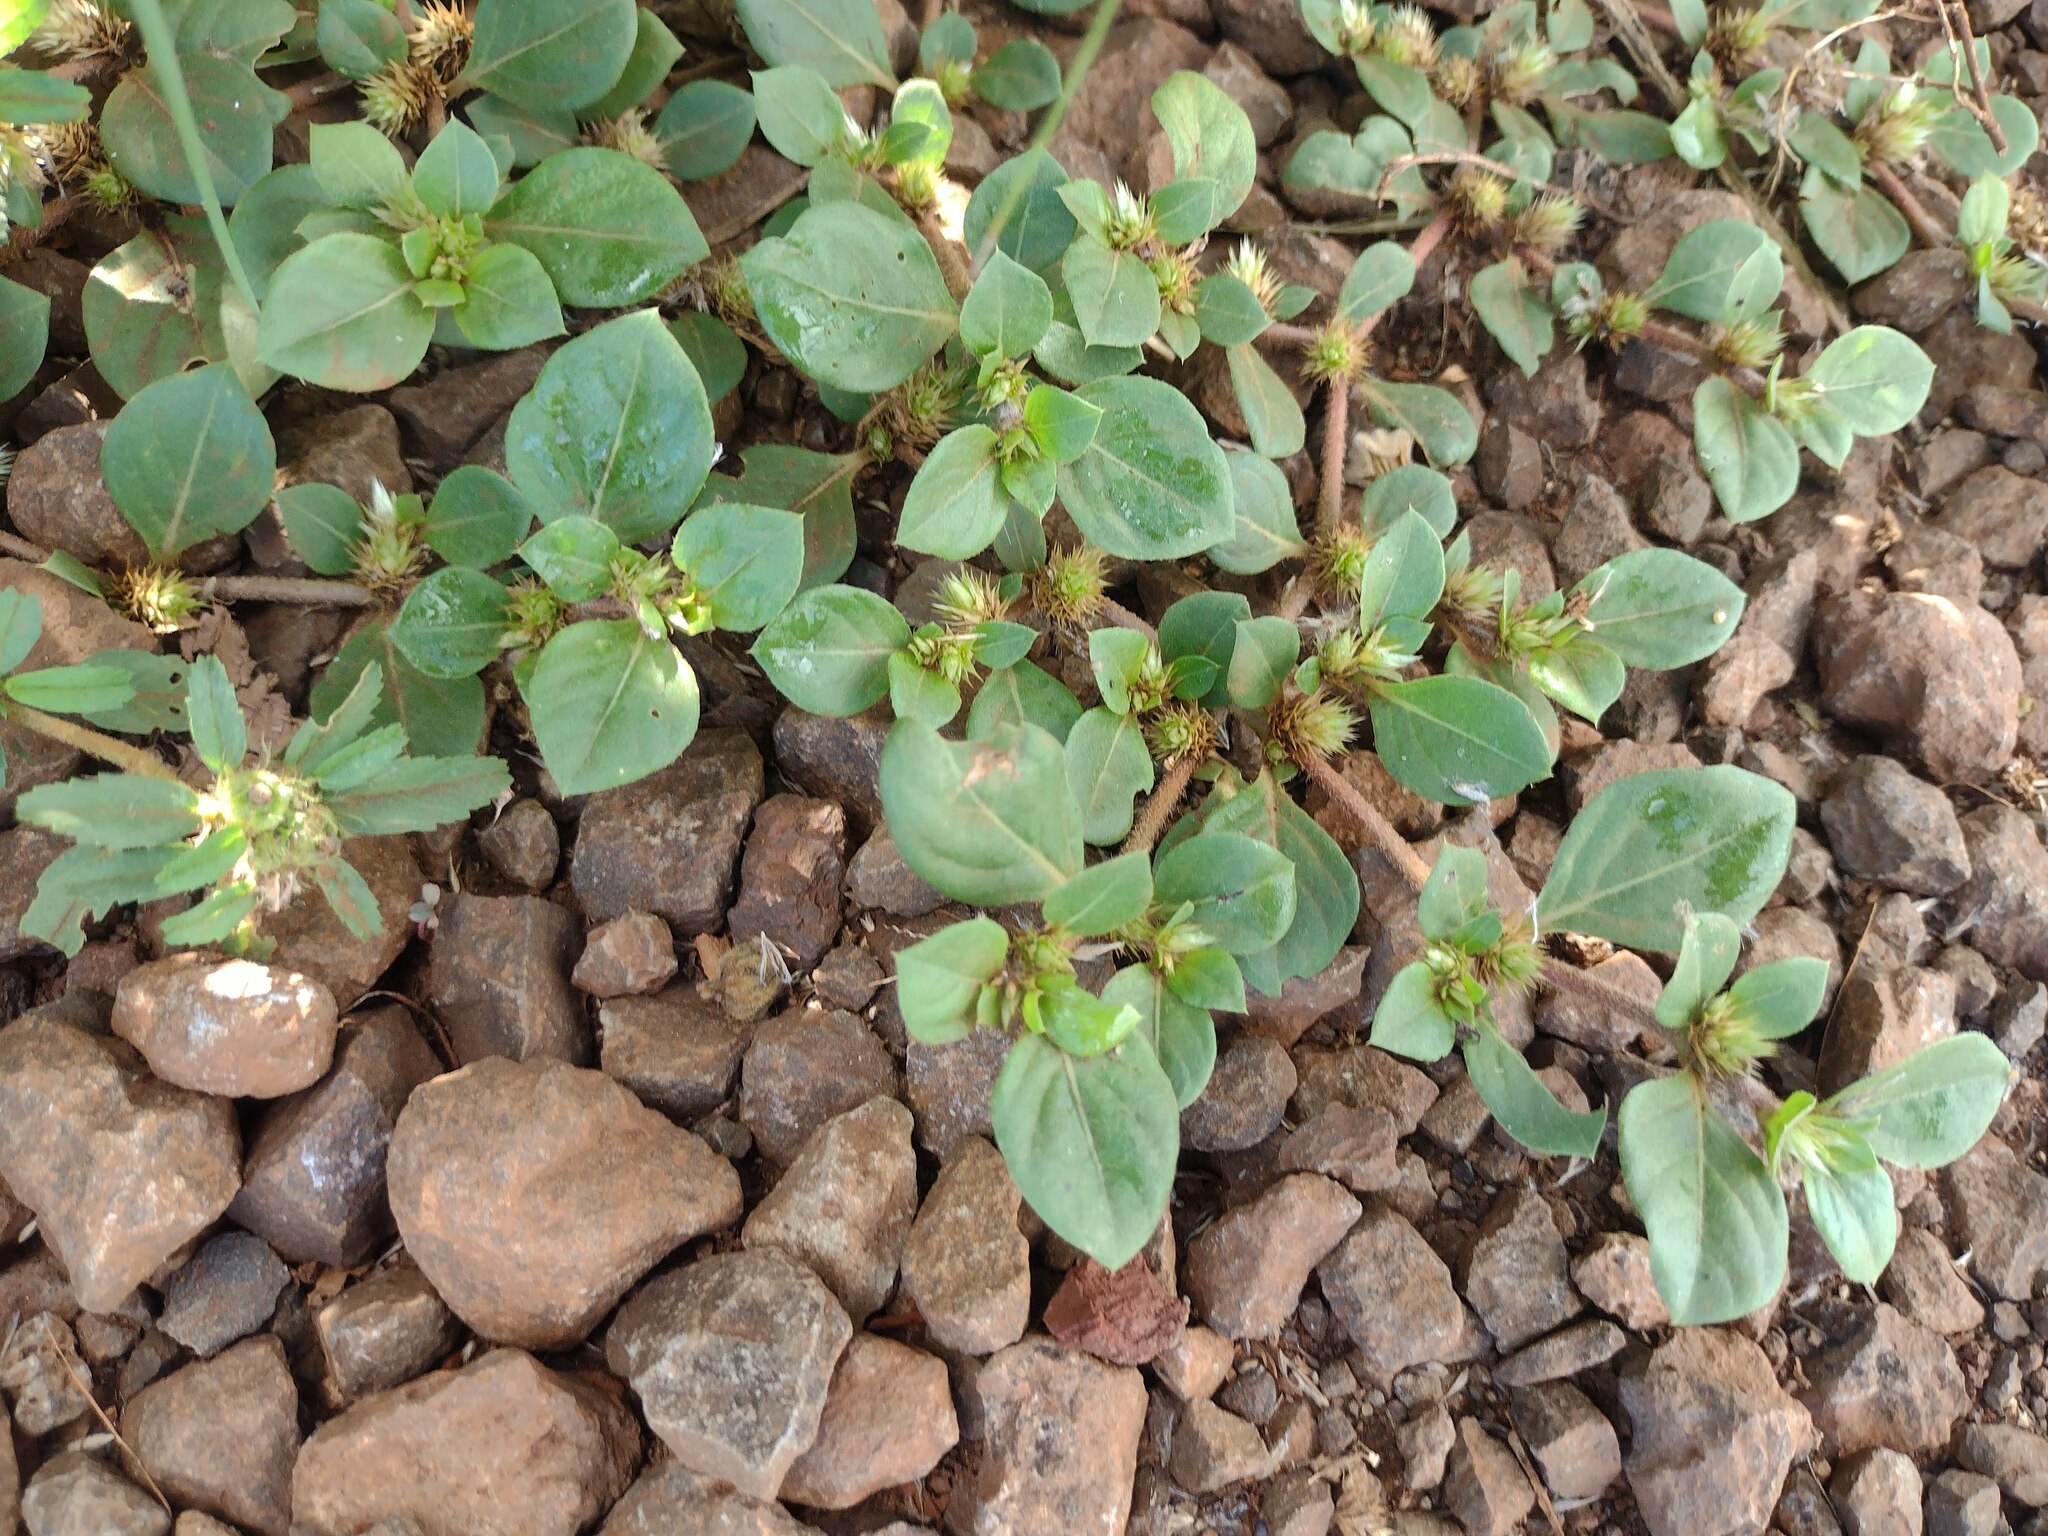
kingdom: Plantae
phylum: Tracheophyta
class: Magnoliopsida
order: Caryophyllales
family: Amaranthaceae
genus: Alternanthera
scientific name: Alternanthera pungens
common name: Khakiweed
